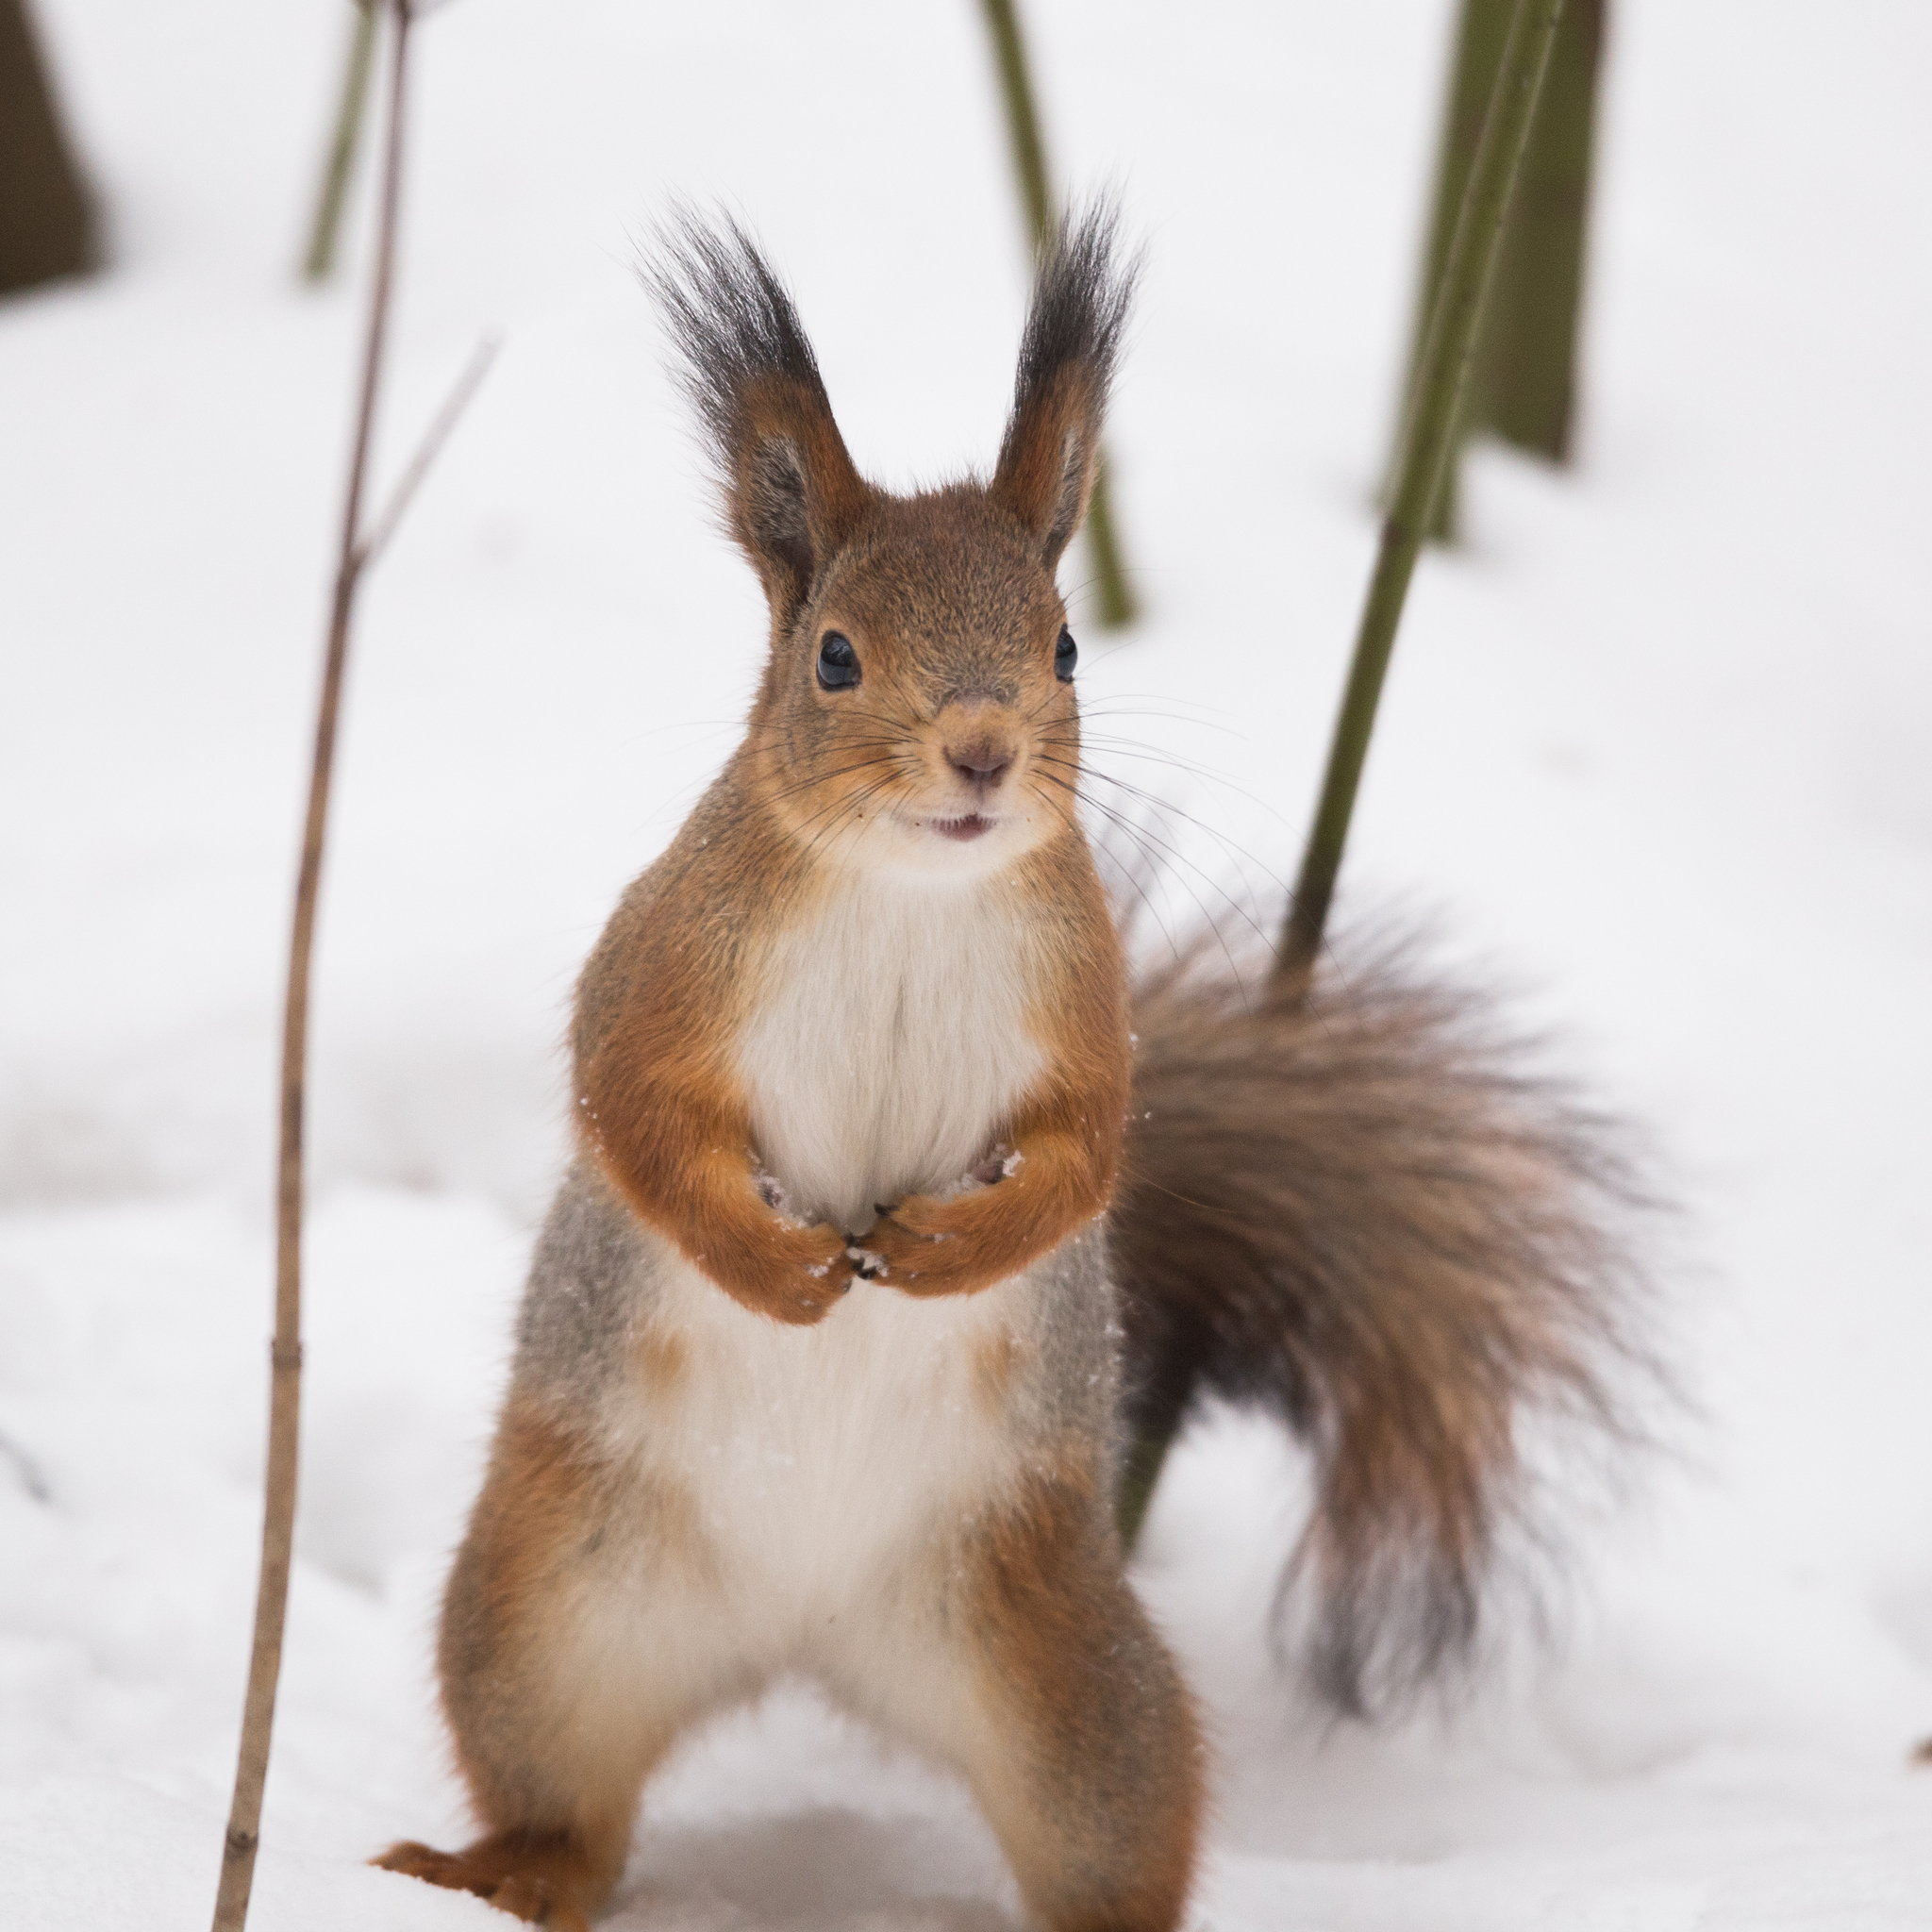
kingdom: Animalia
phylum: Chordata
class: Mammalia
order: Rodentia
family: Sciuridae
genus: Sciurus
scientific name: Sciurus vulgaris
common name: Eurasian red squirrel
